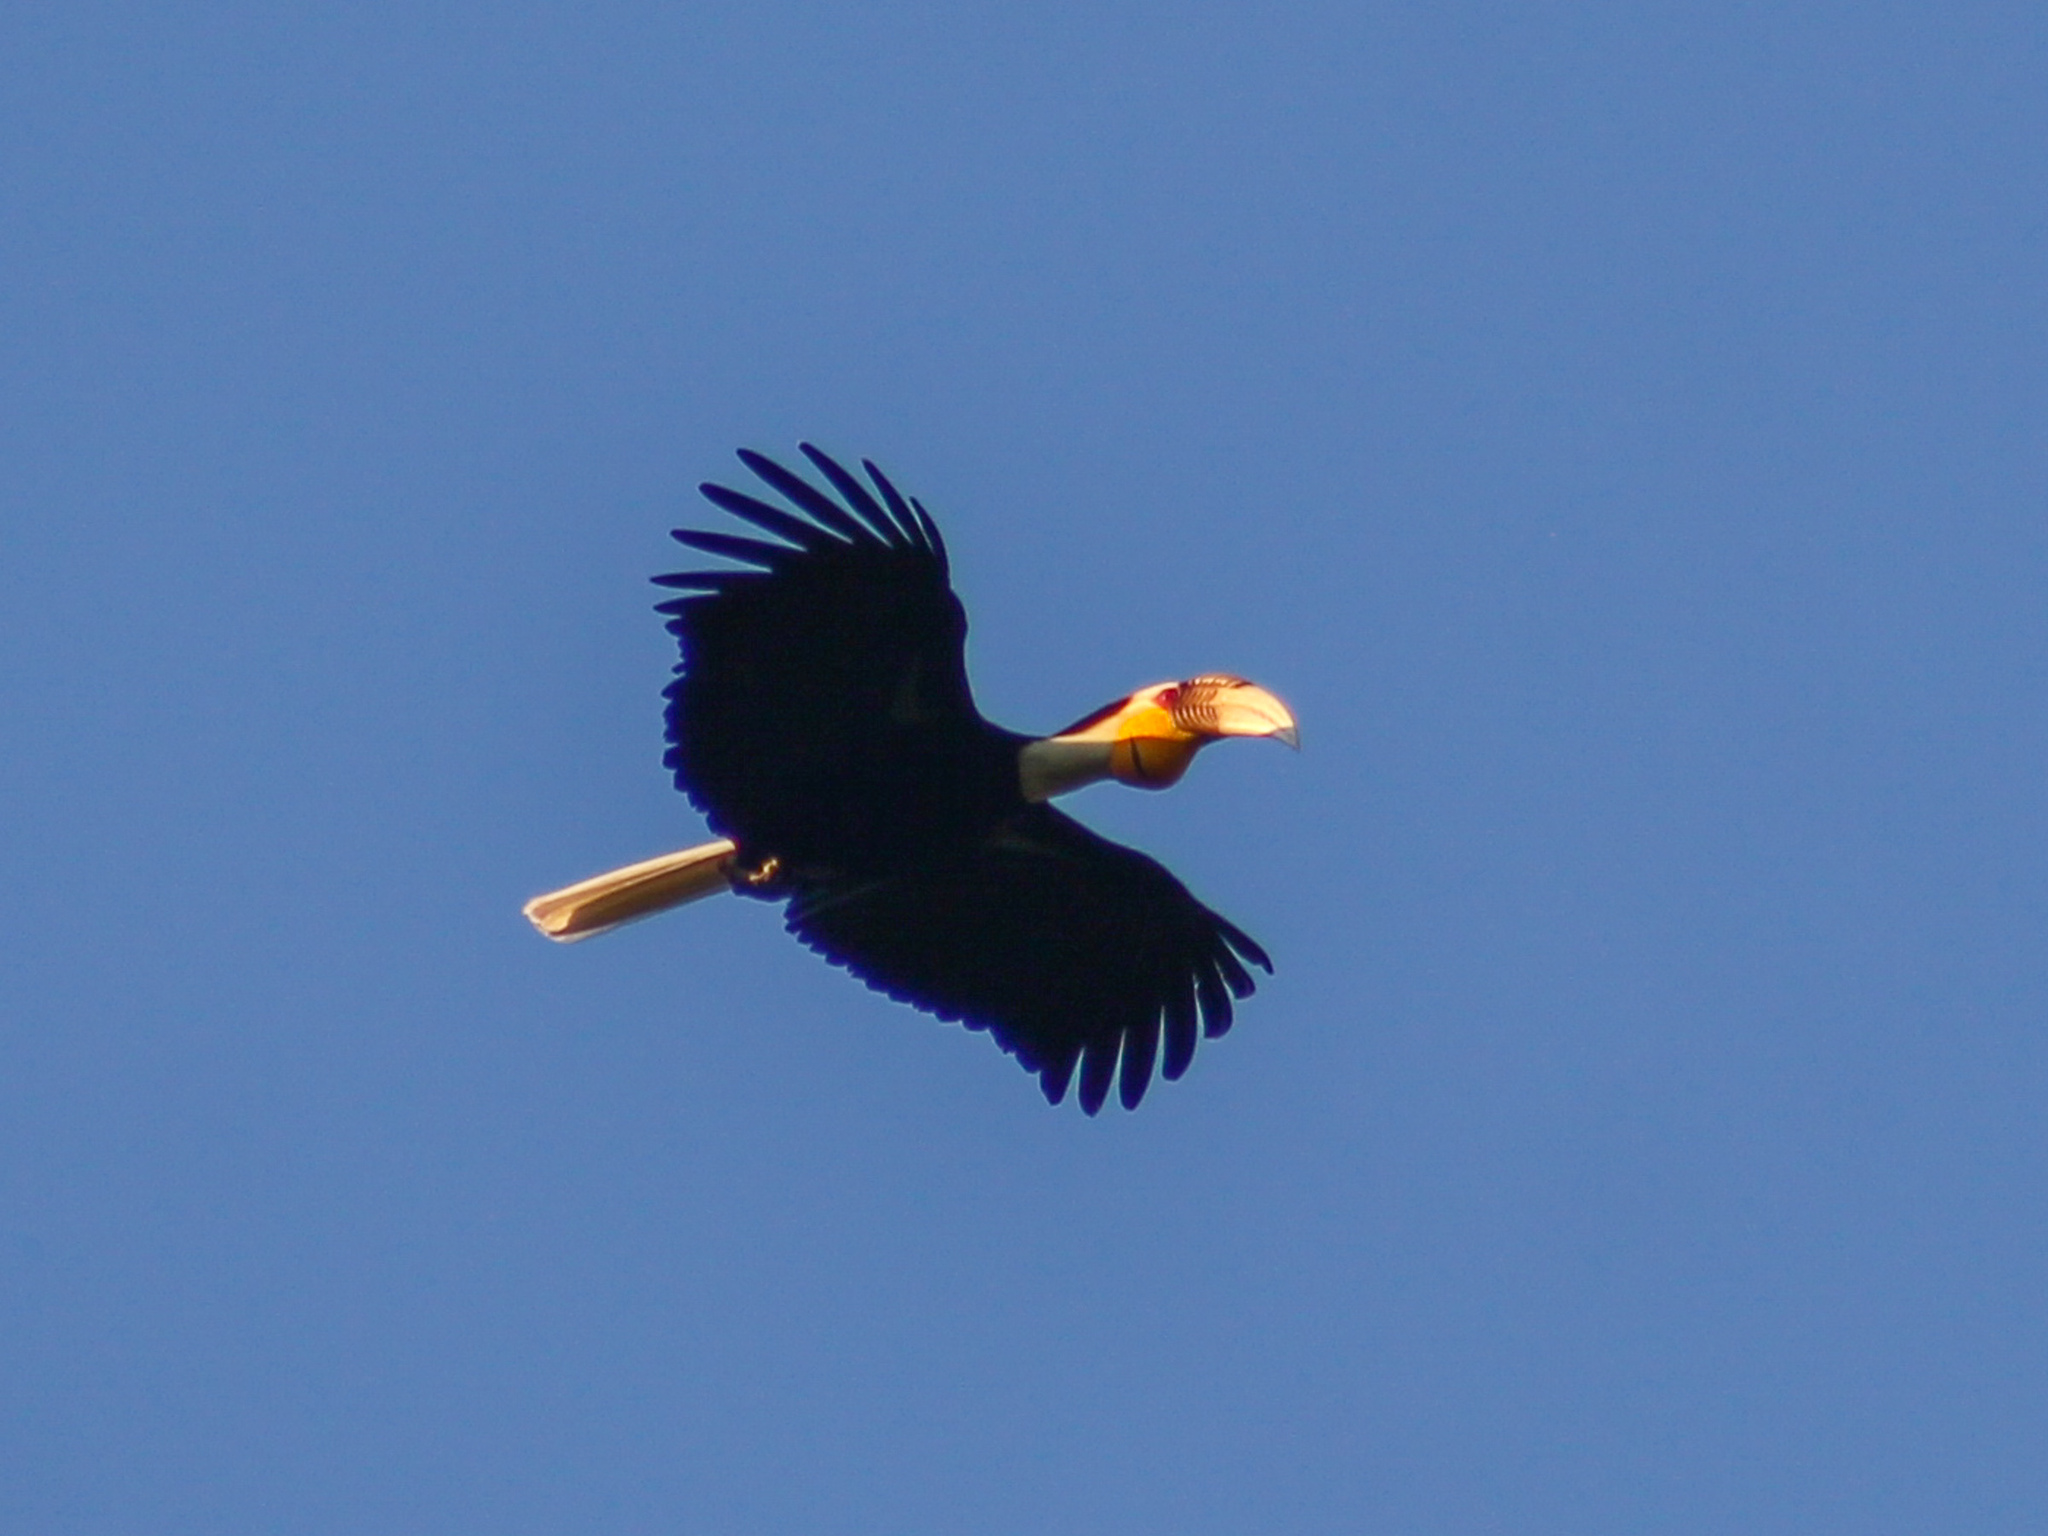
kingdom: Animalia
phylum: Chordata
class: Aves
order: Bucerotiformes
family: Bucerotidae
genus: Rhyticeros
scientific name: Rhyticeros undulatus
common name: Wreathed hornbill
